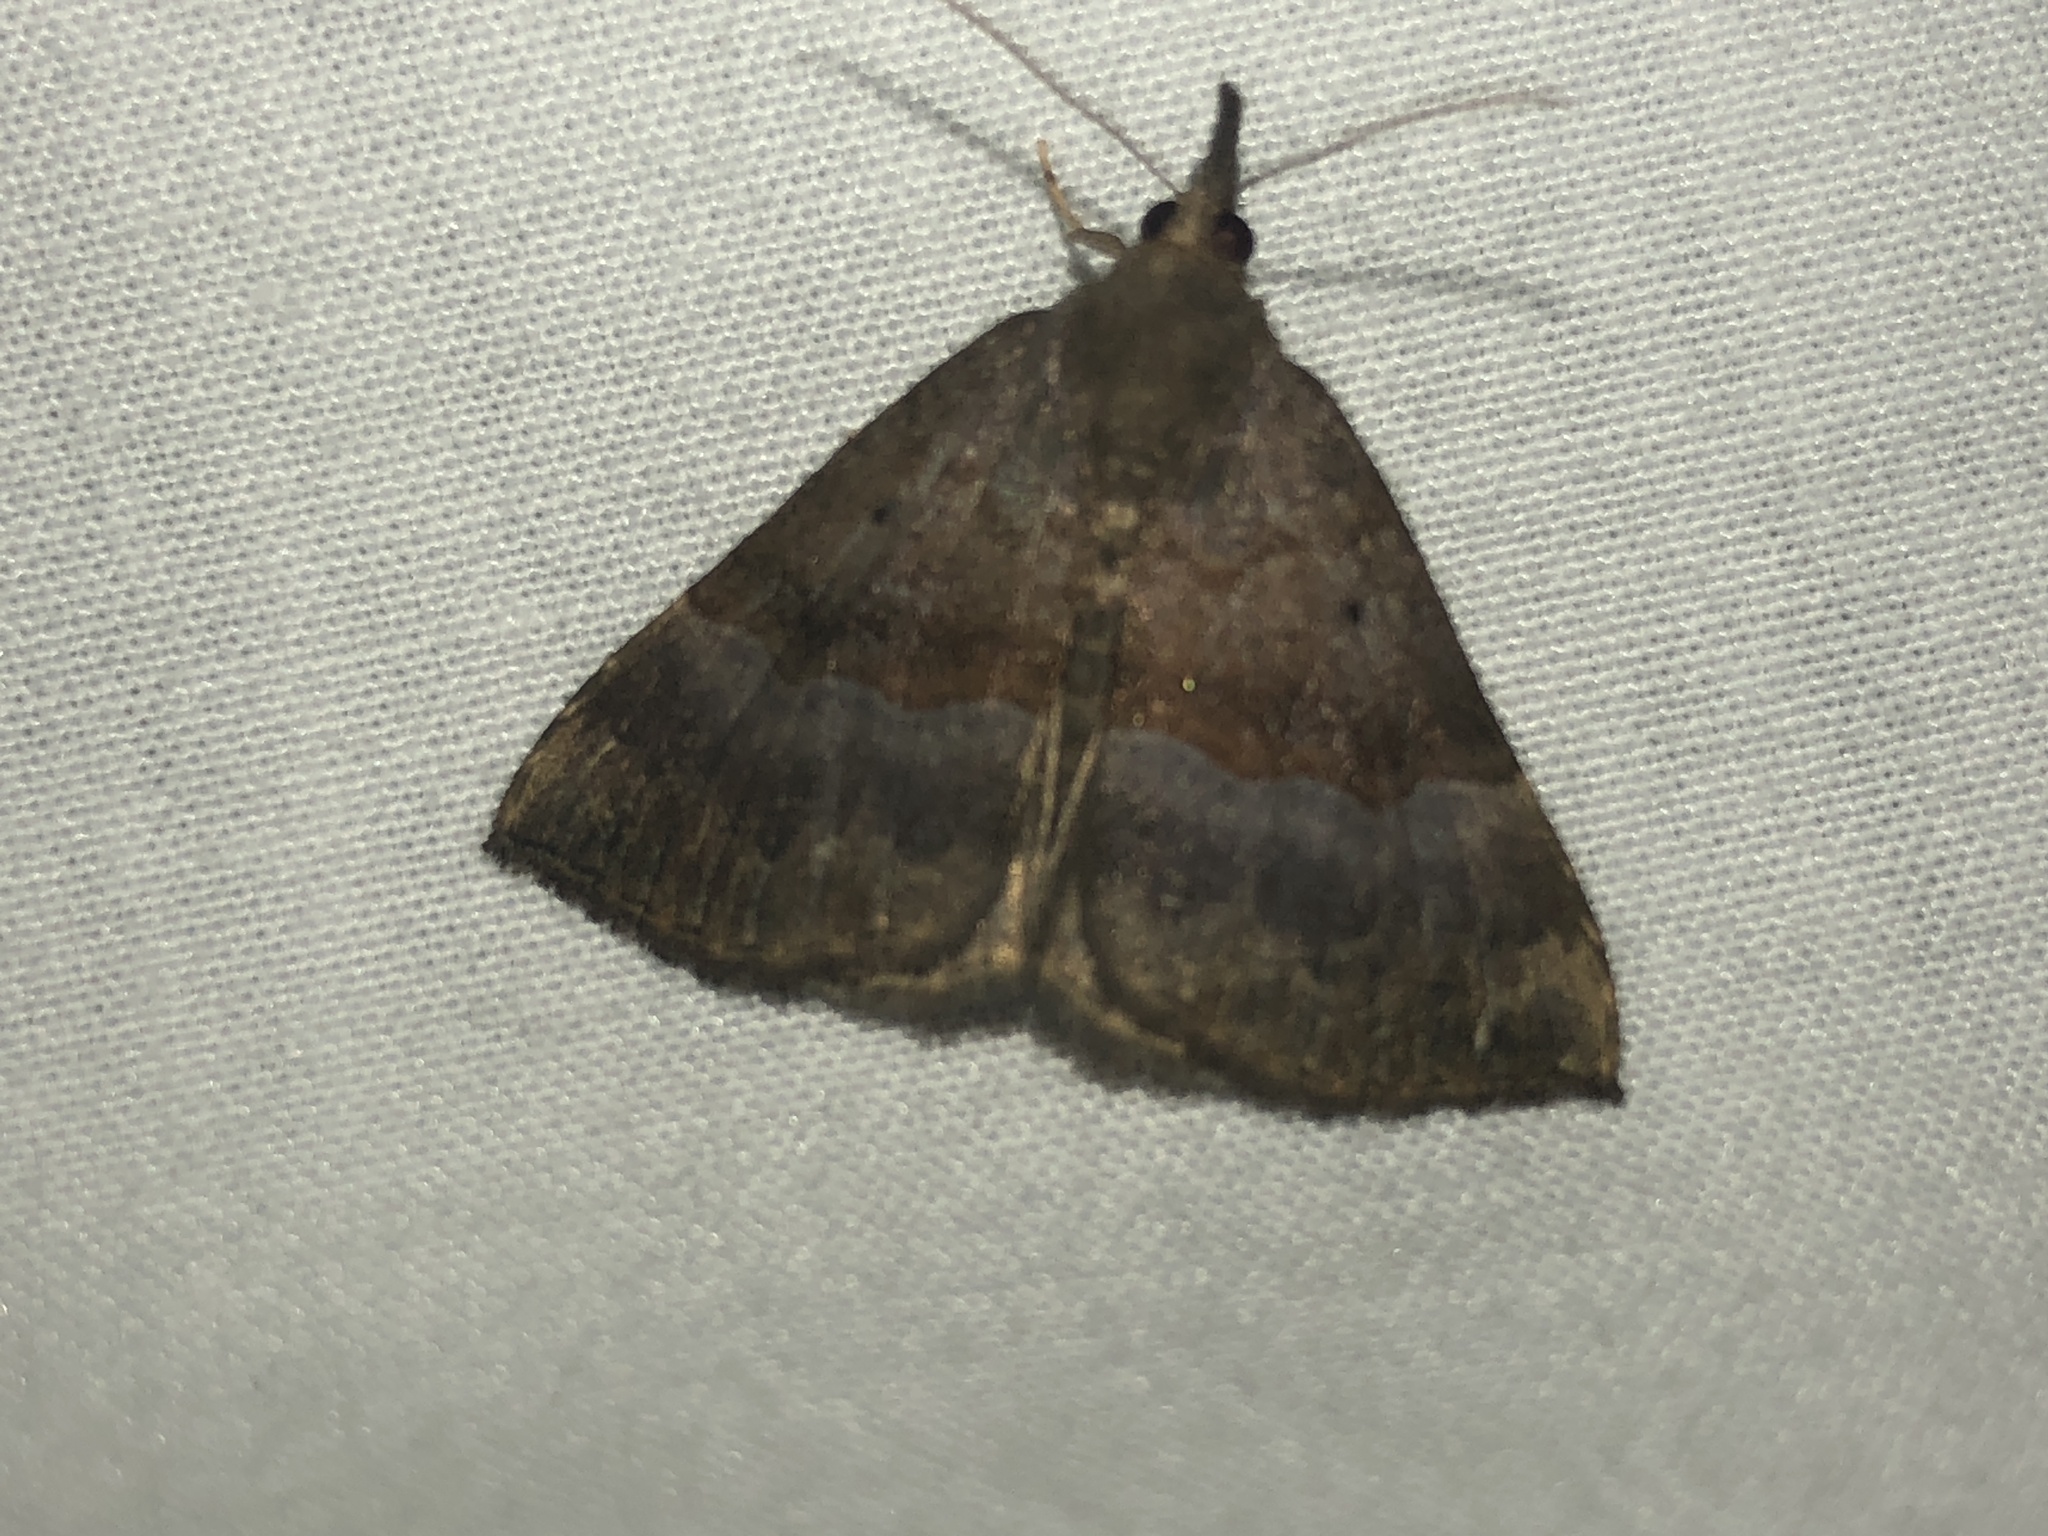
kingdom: Animalia
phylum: Arthropoda
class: Insecta
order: Lepidoptera
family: Erebidae
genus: Hypena
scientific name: Hypena madefactalis
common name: Gray-edged snout
